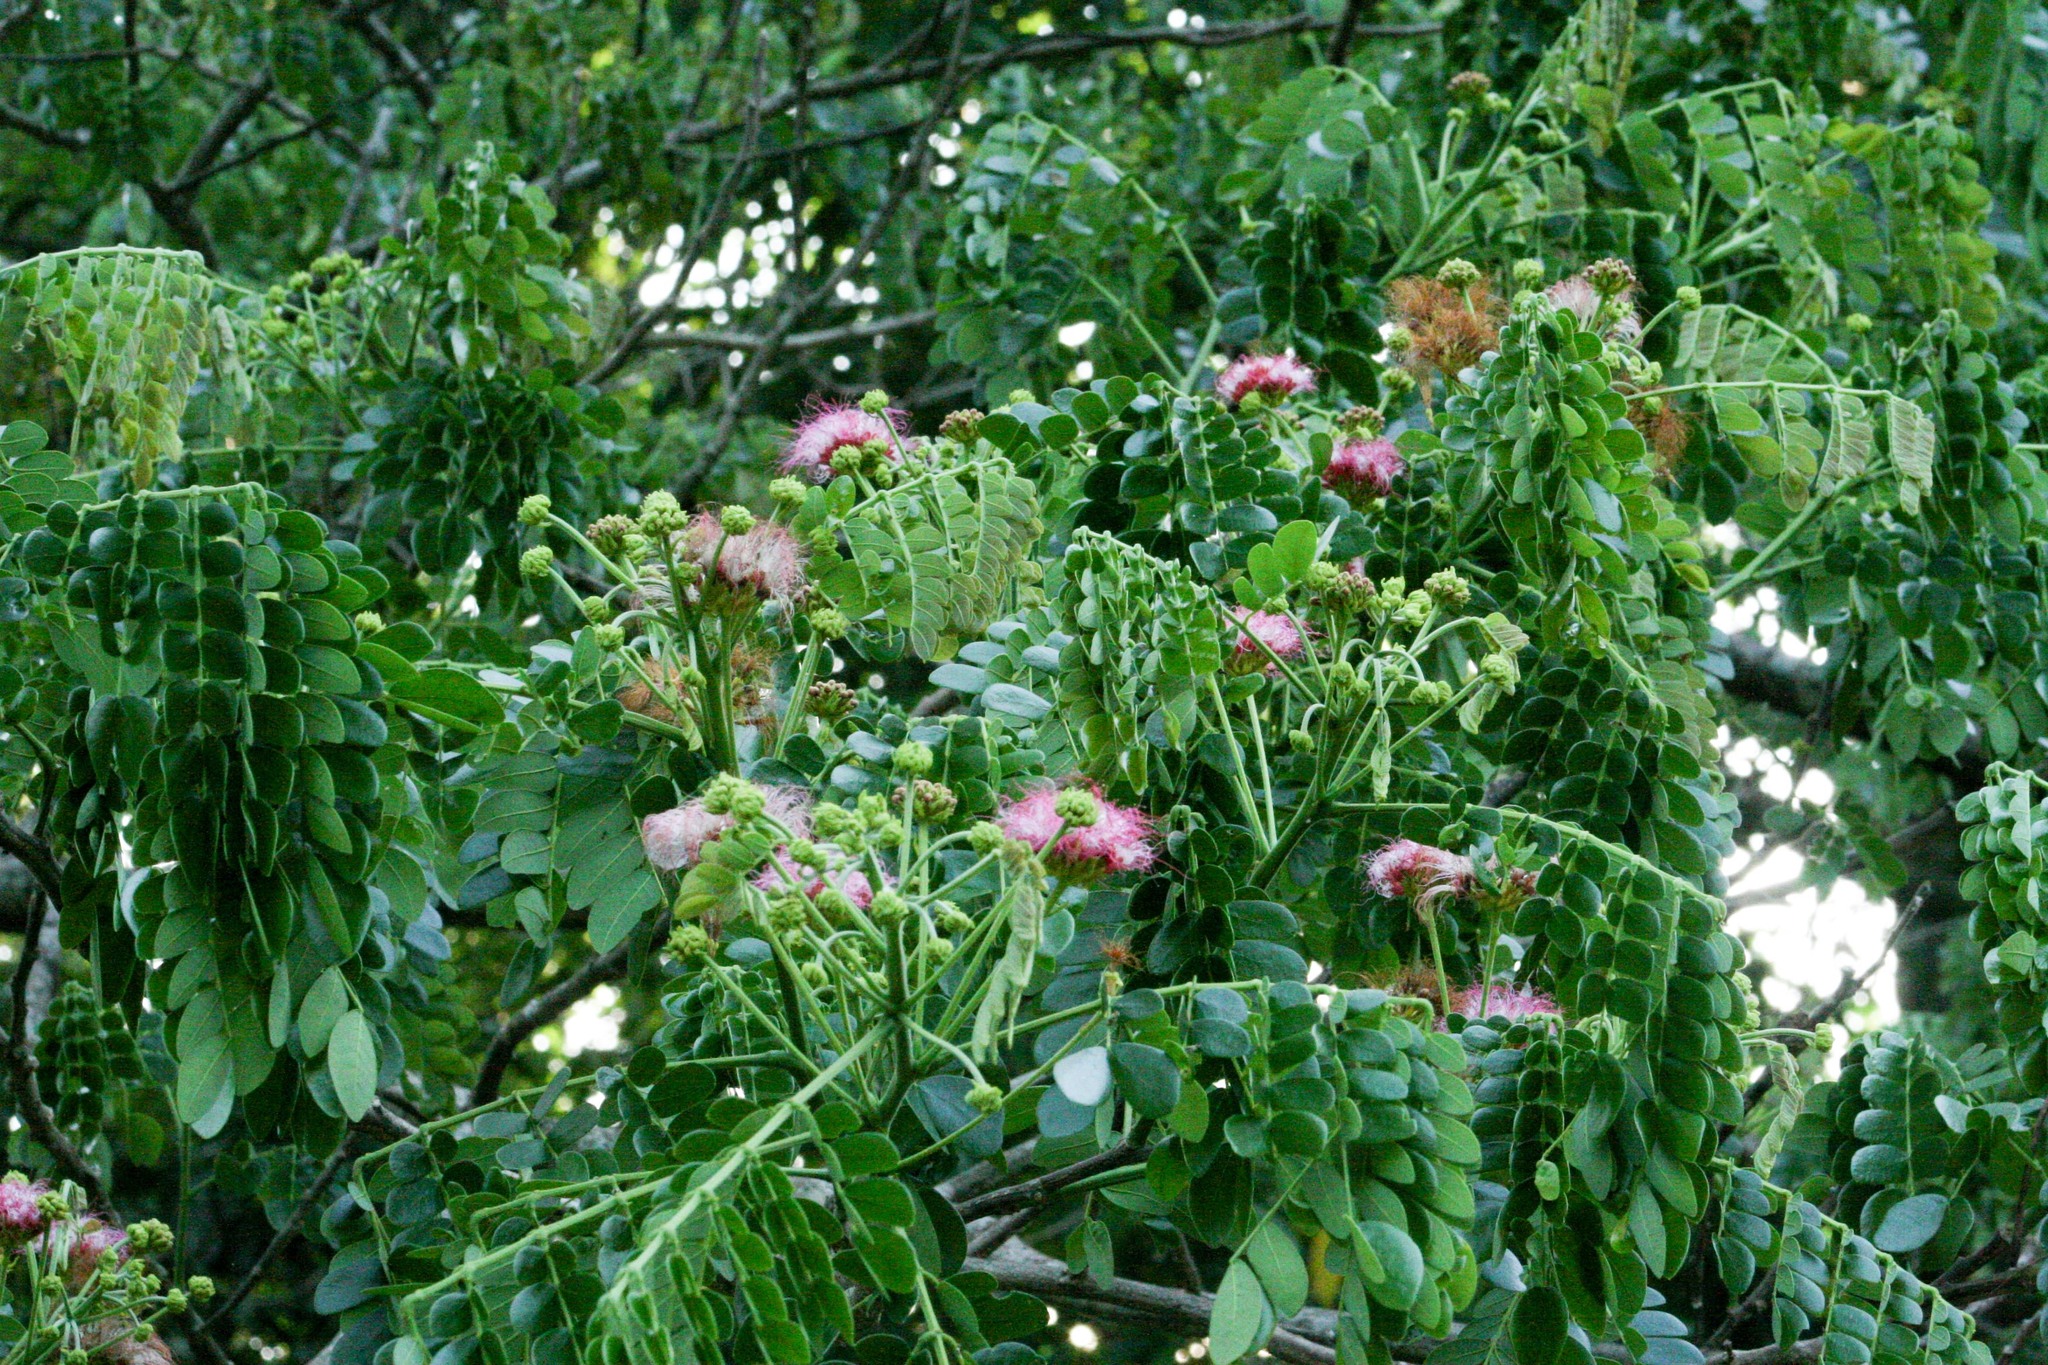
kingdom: Plantae
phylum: Tracheophyta
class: Magnoliopsida
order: Fabales
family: Fabaceae
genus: Samanea
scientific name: Samanea saman
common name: Raintree
